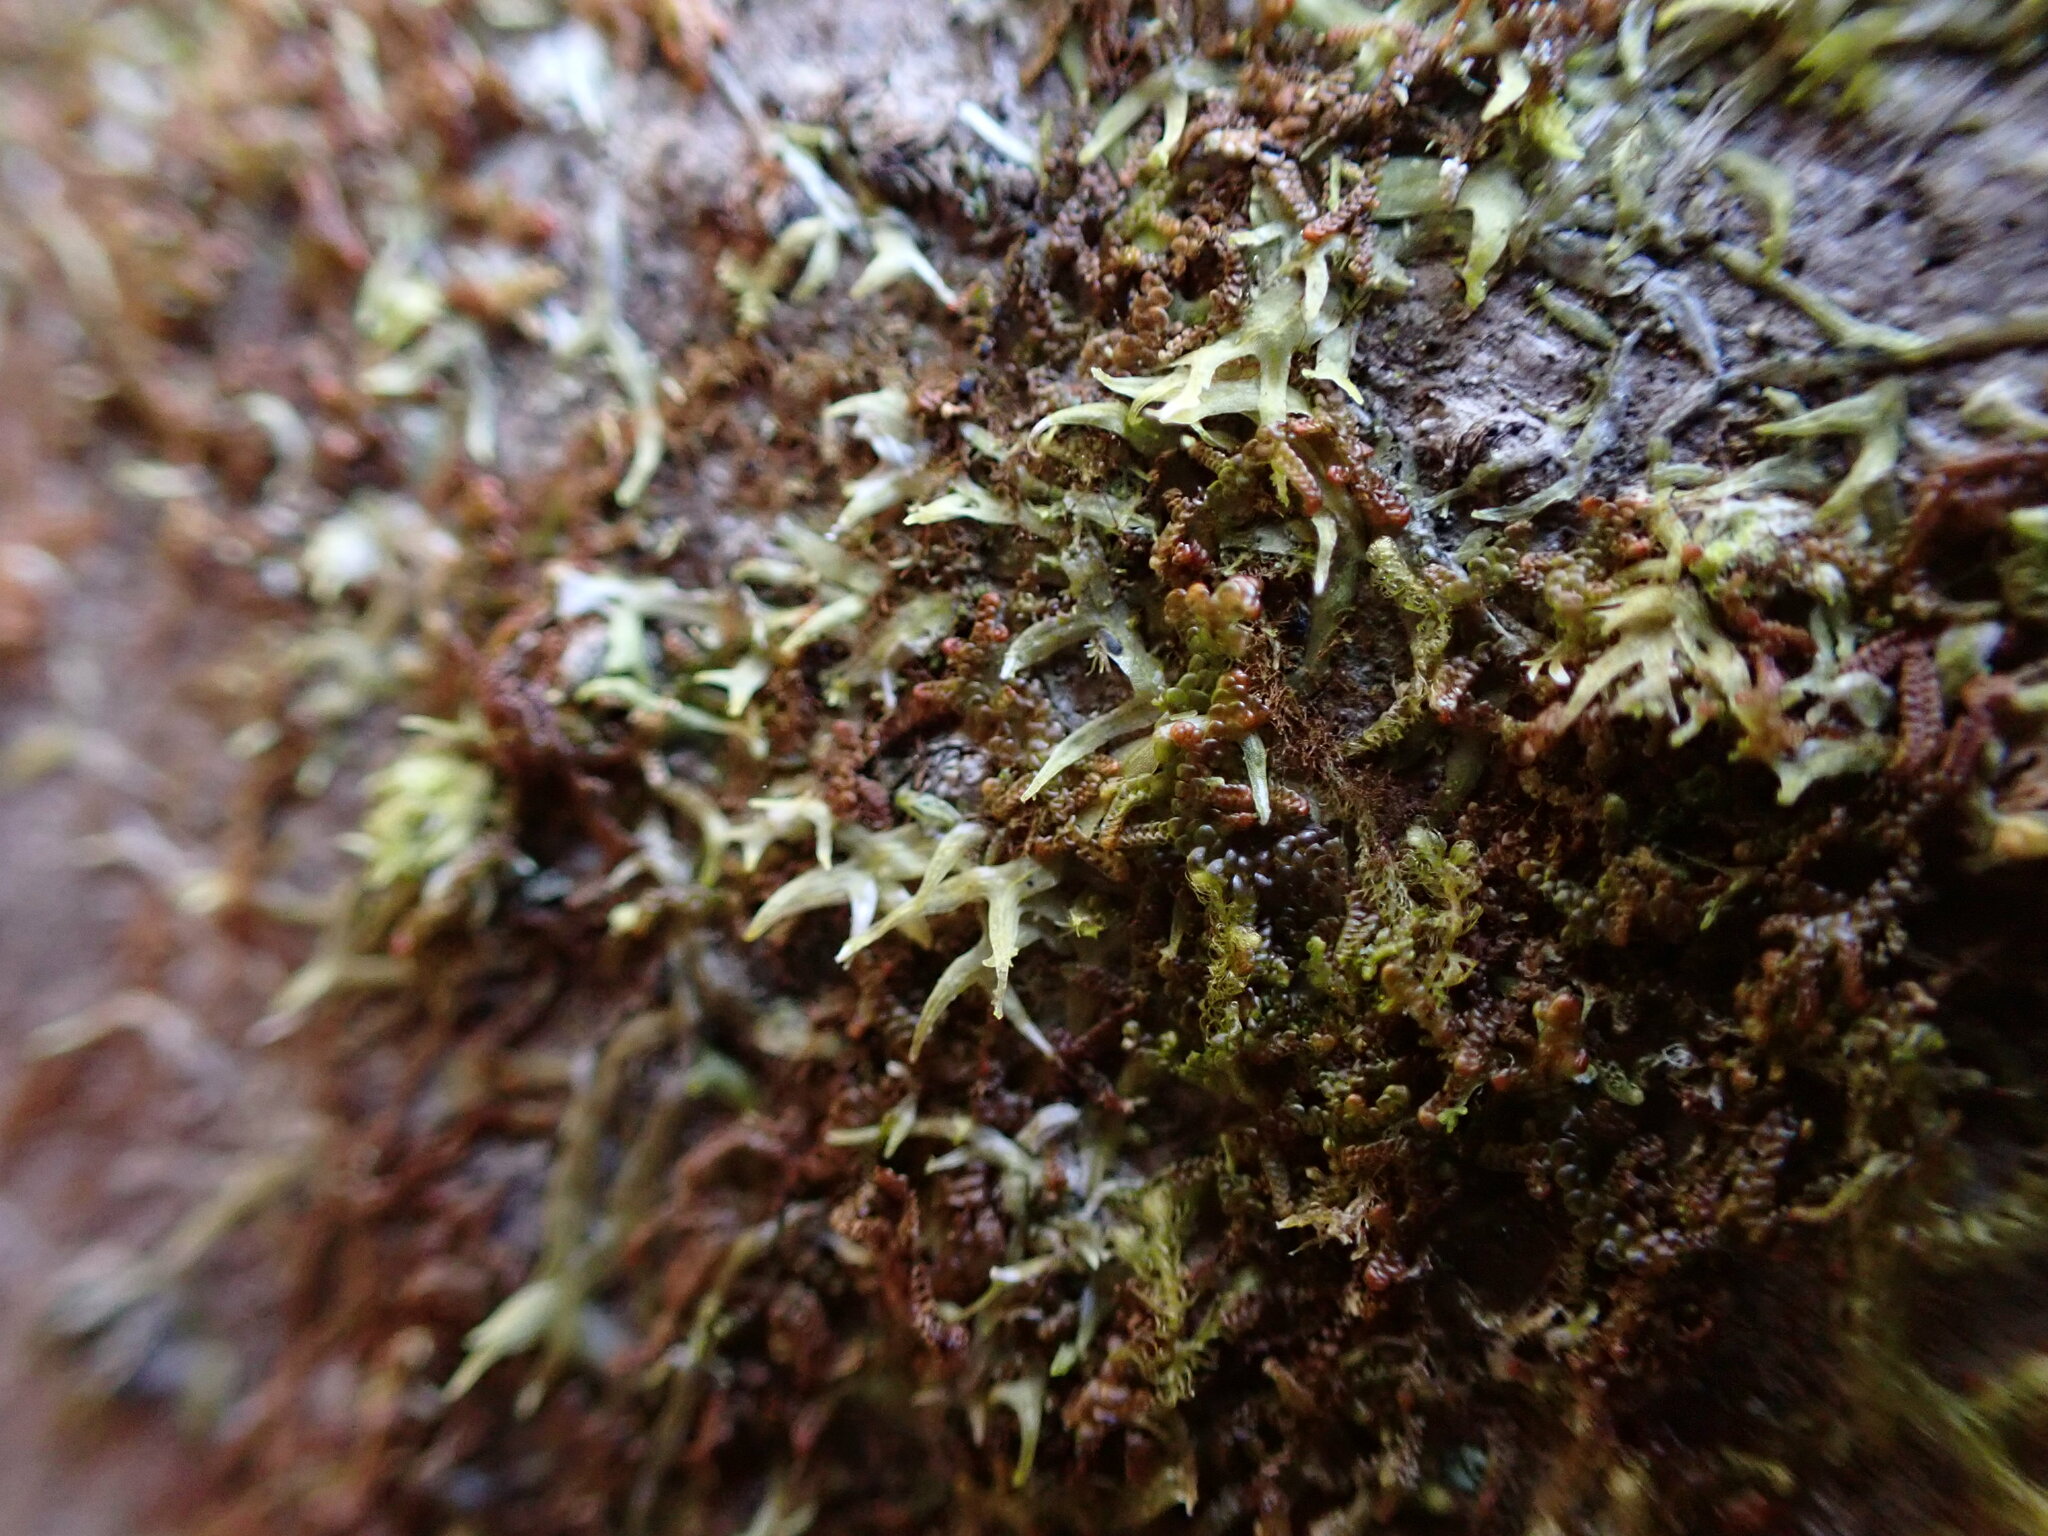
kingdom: Plantae
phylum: Marchantiophyta
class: Jungermanniopsida
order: Metzgeriales
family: Metzgeriaceae
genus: Metzgeria
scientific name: Metzgeria consanguinea
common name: Whiskered veilwort
